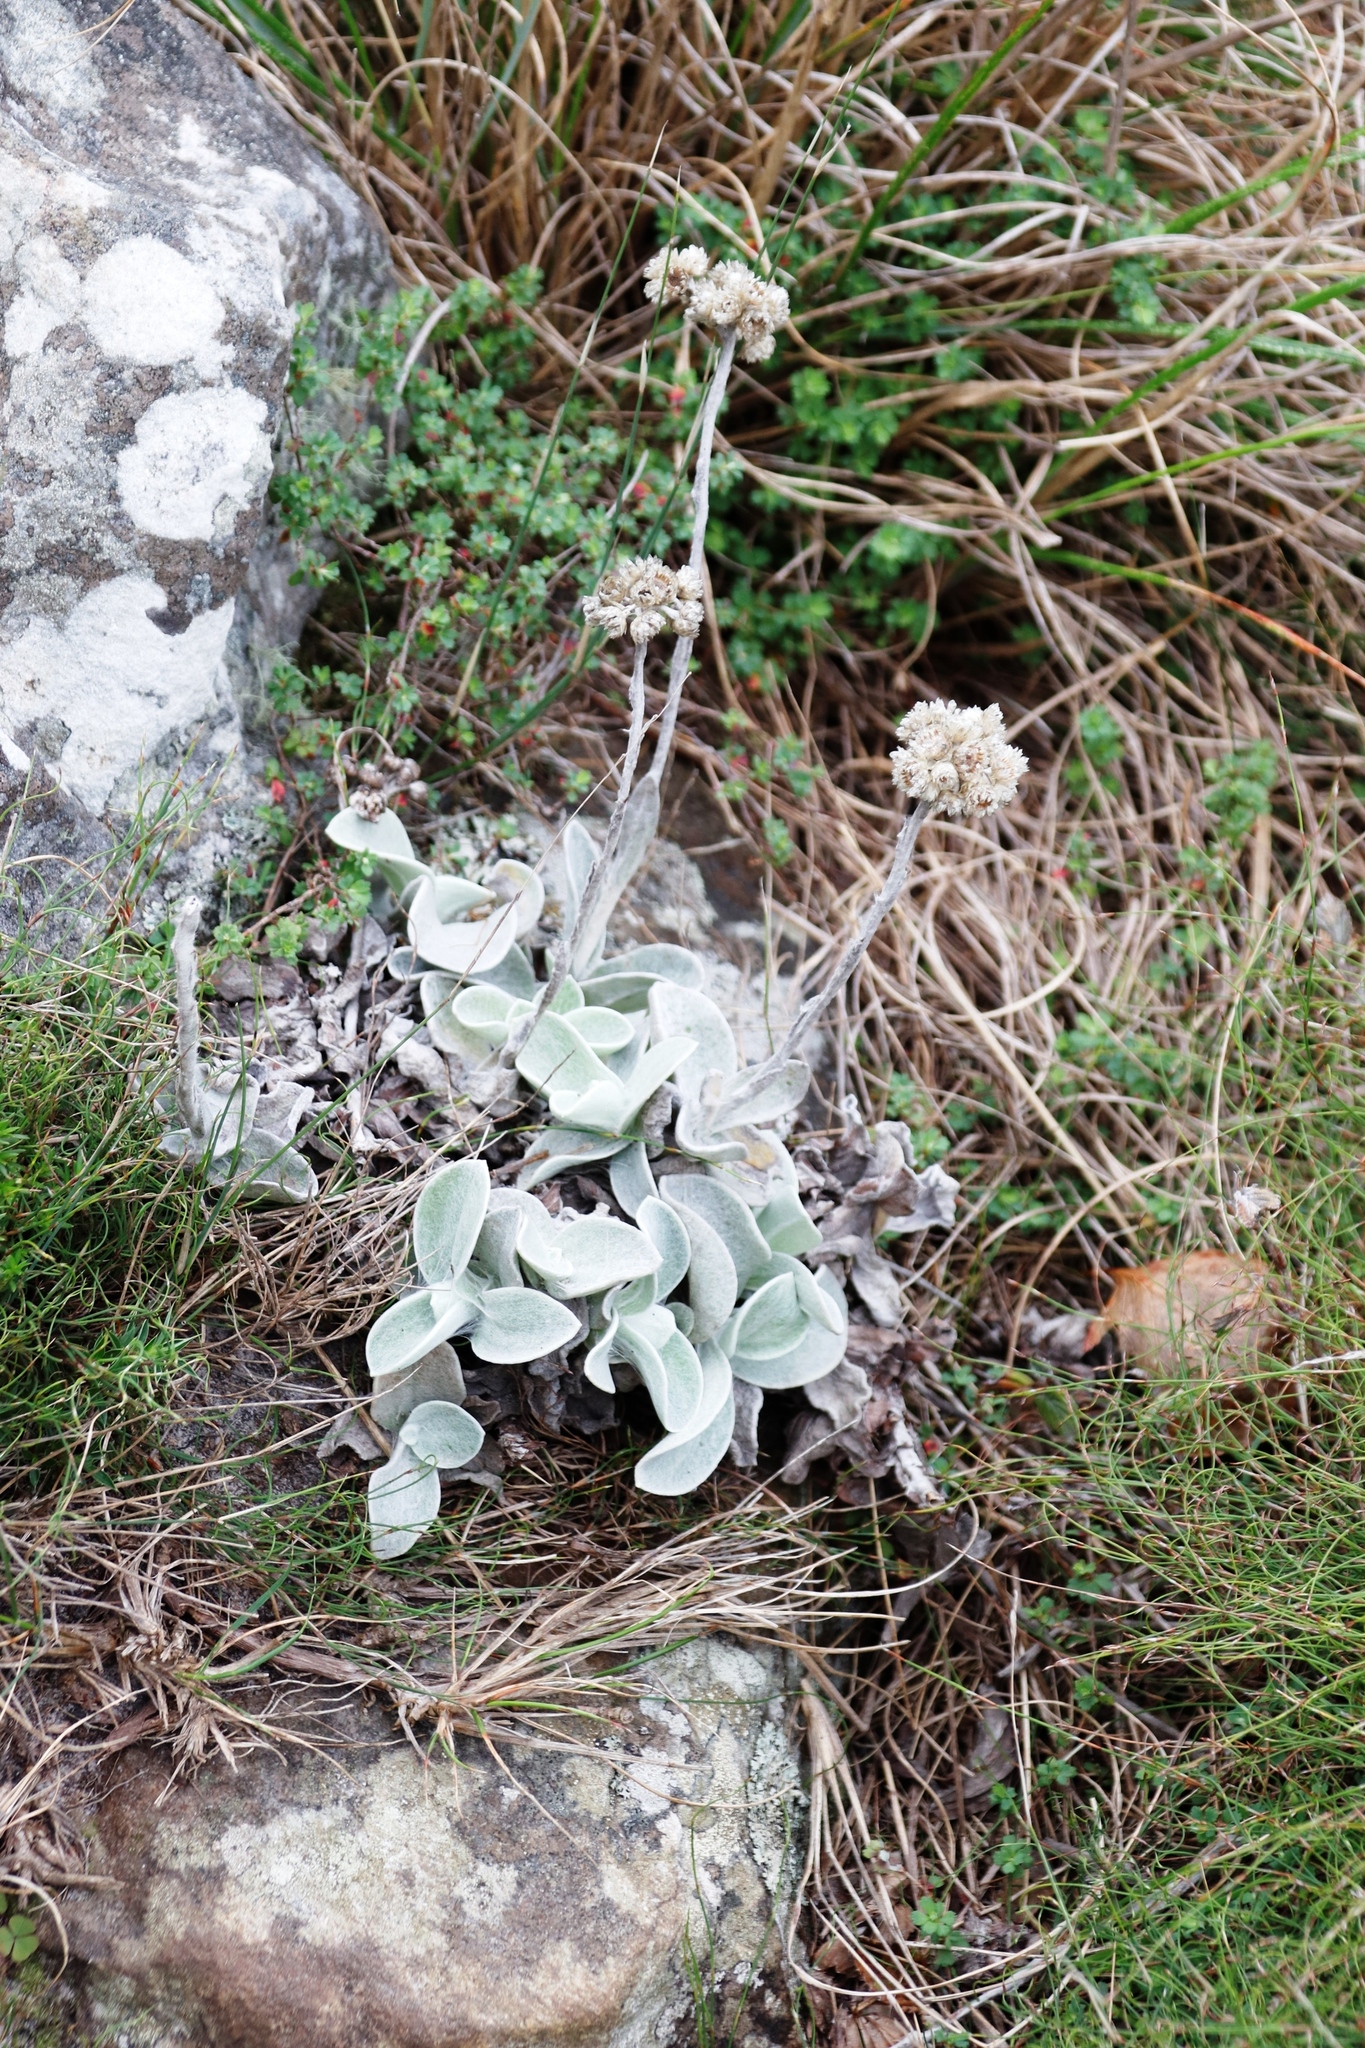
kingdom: Plantae
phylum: Tracheophyta
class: Magnoliopsida
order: Asterales
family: Asteraceae
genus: Helichrysum
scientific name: Helichrysum grandiflorum
